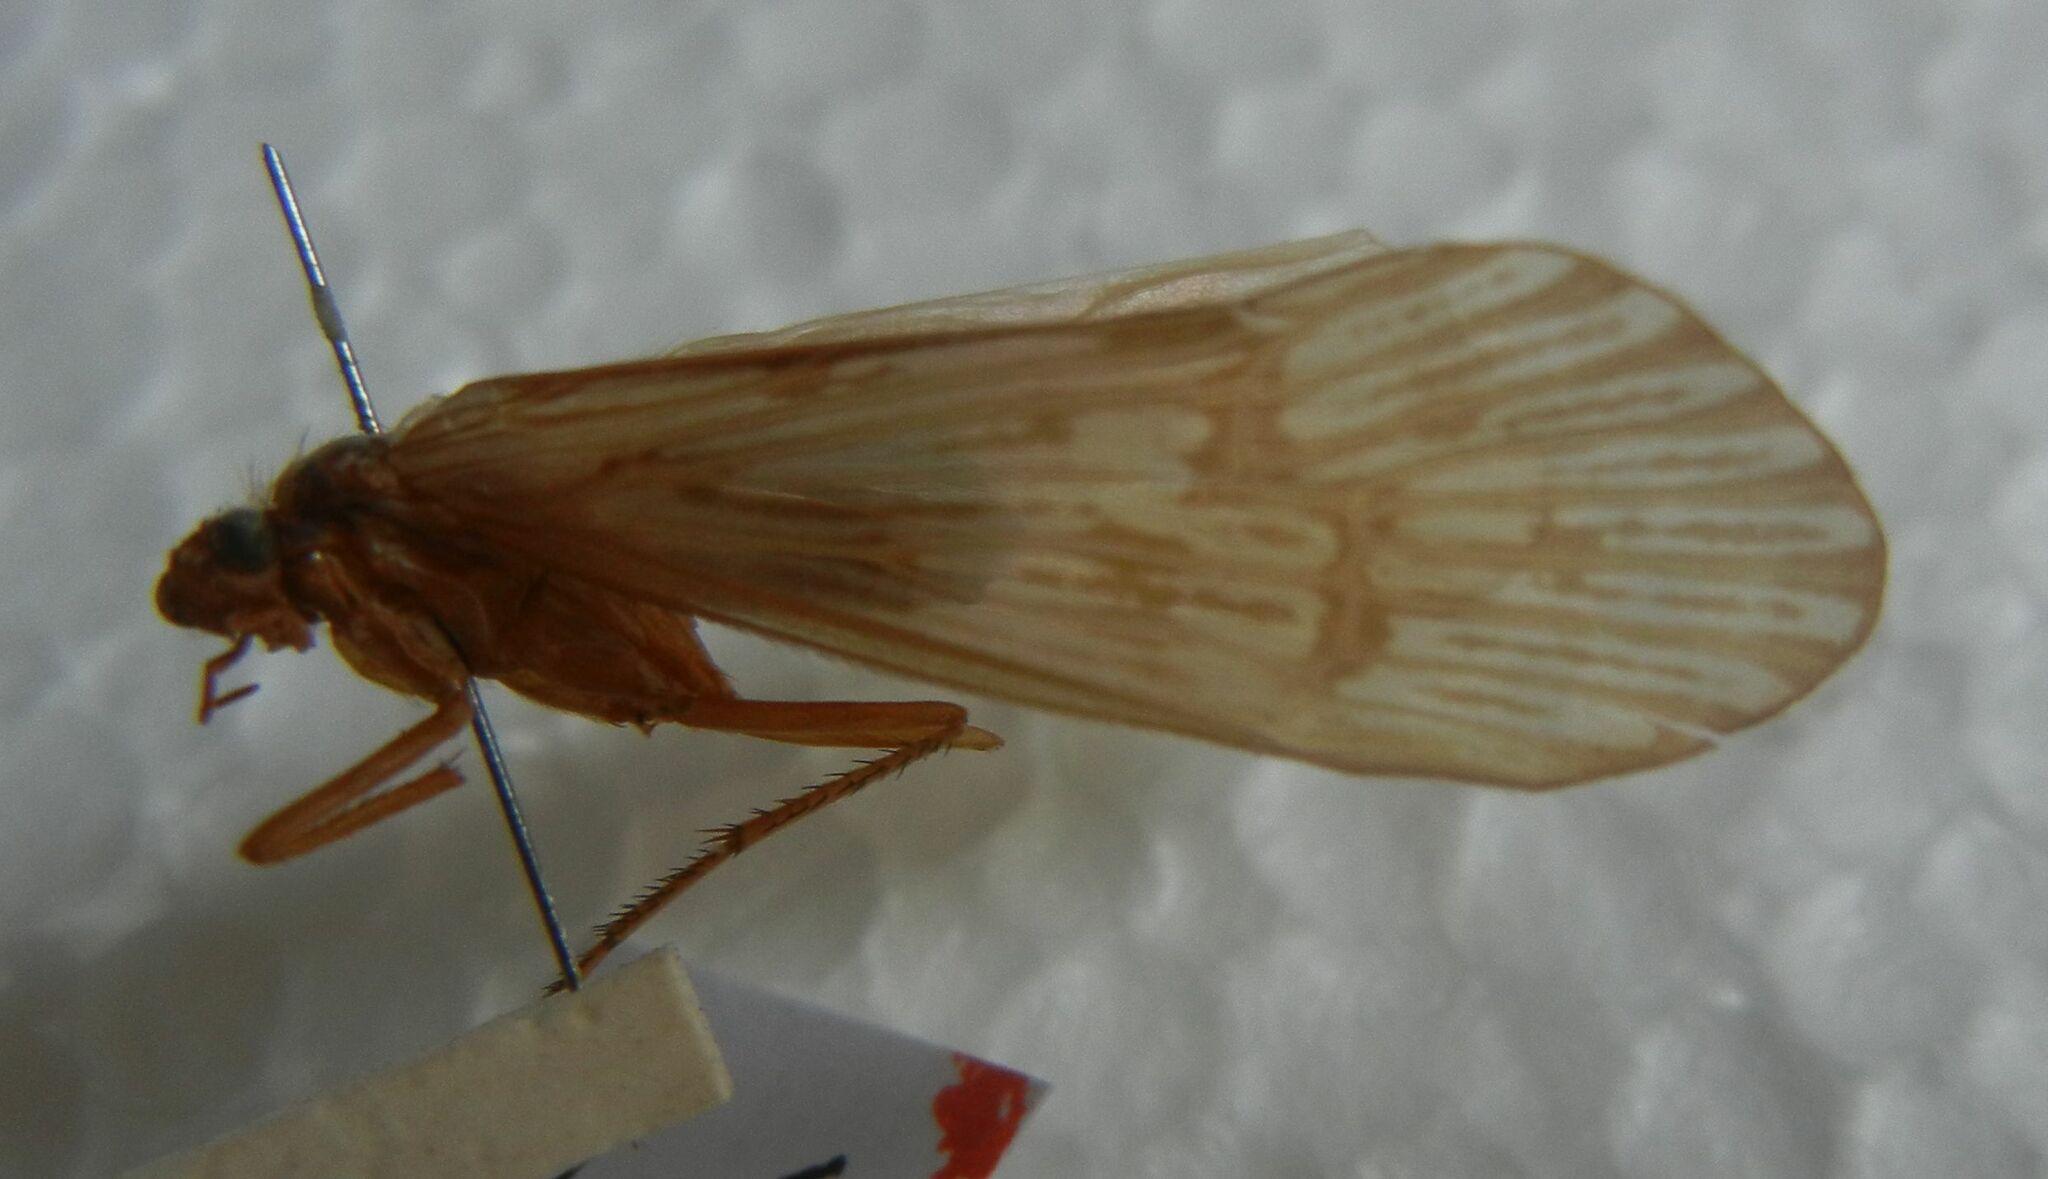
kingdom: Animalia
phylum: Arthropoda
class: Insecta
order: Trichoptera
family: Limnephilidae
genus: Halesus
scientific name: Halesus radiatus
